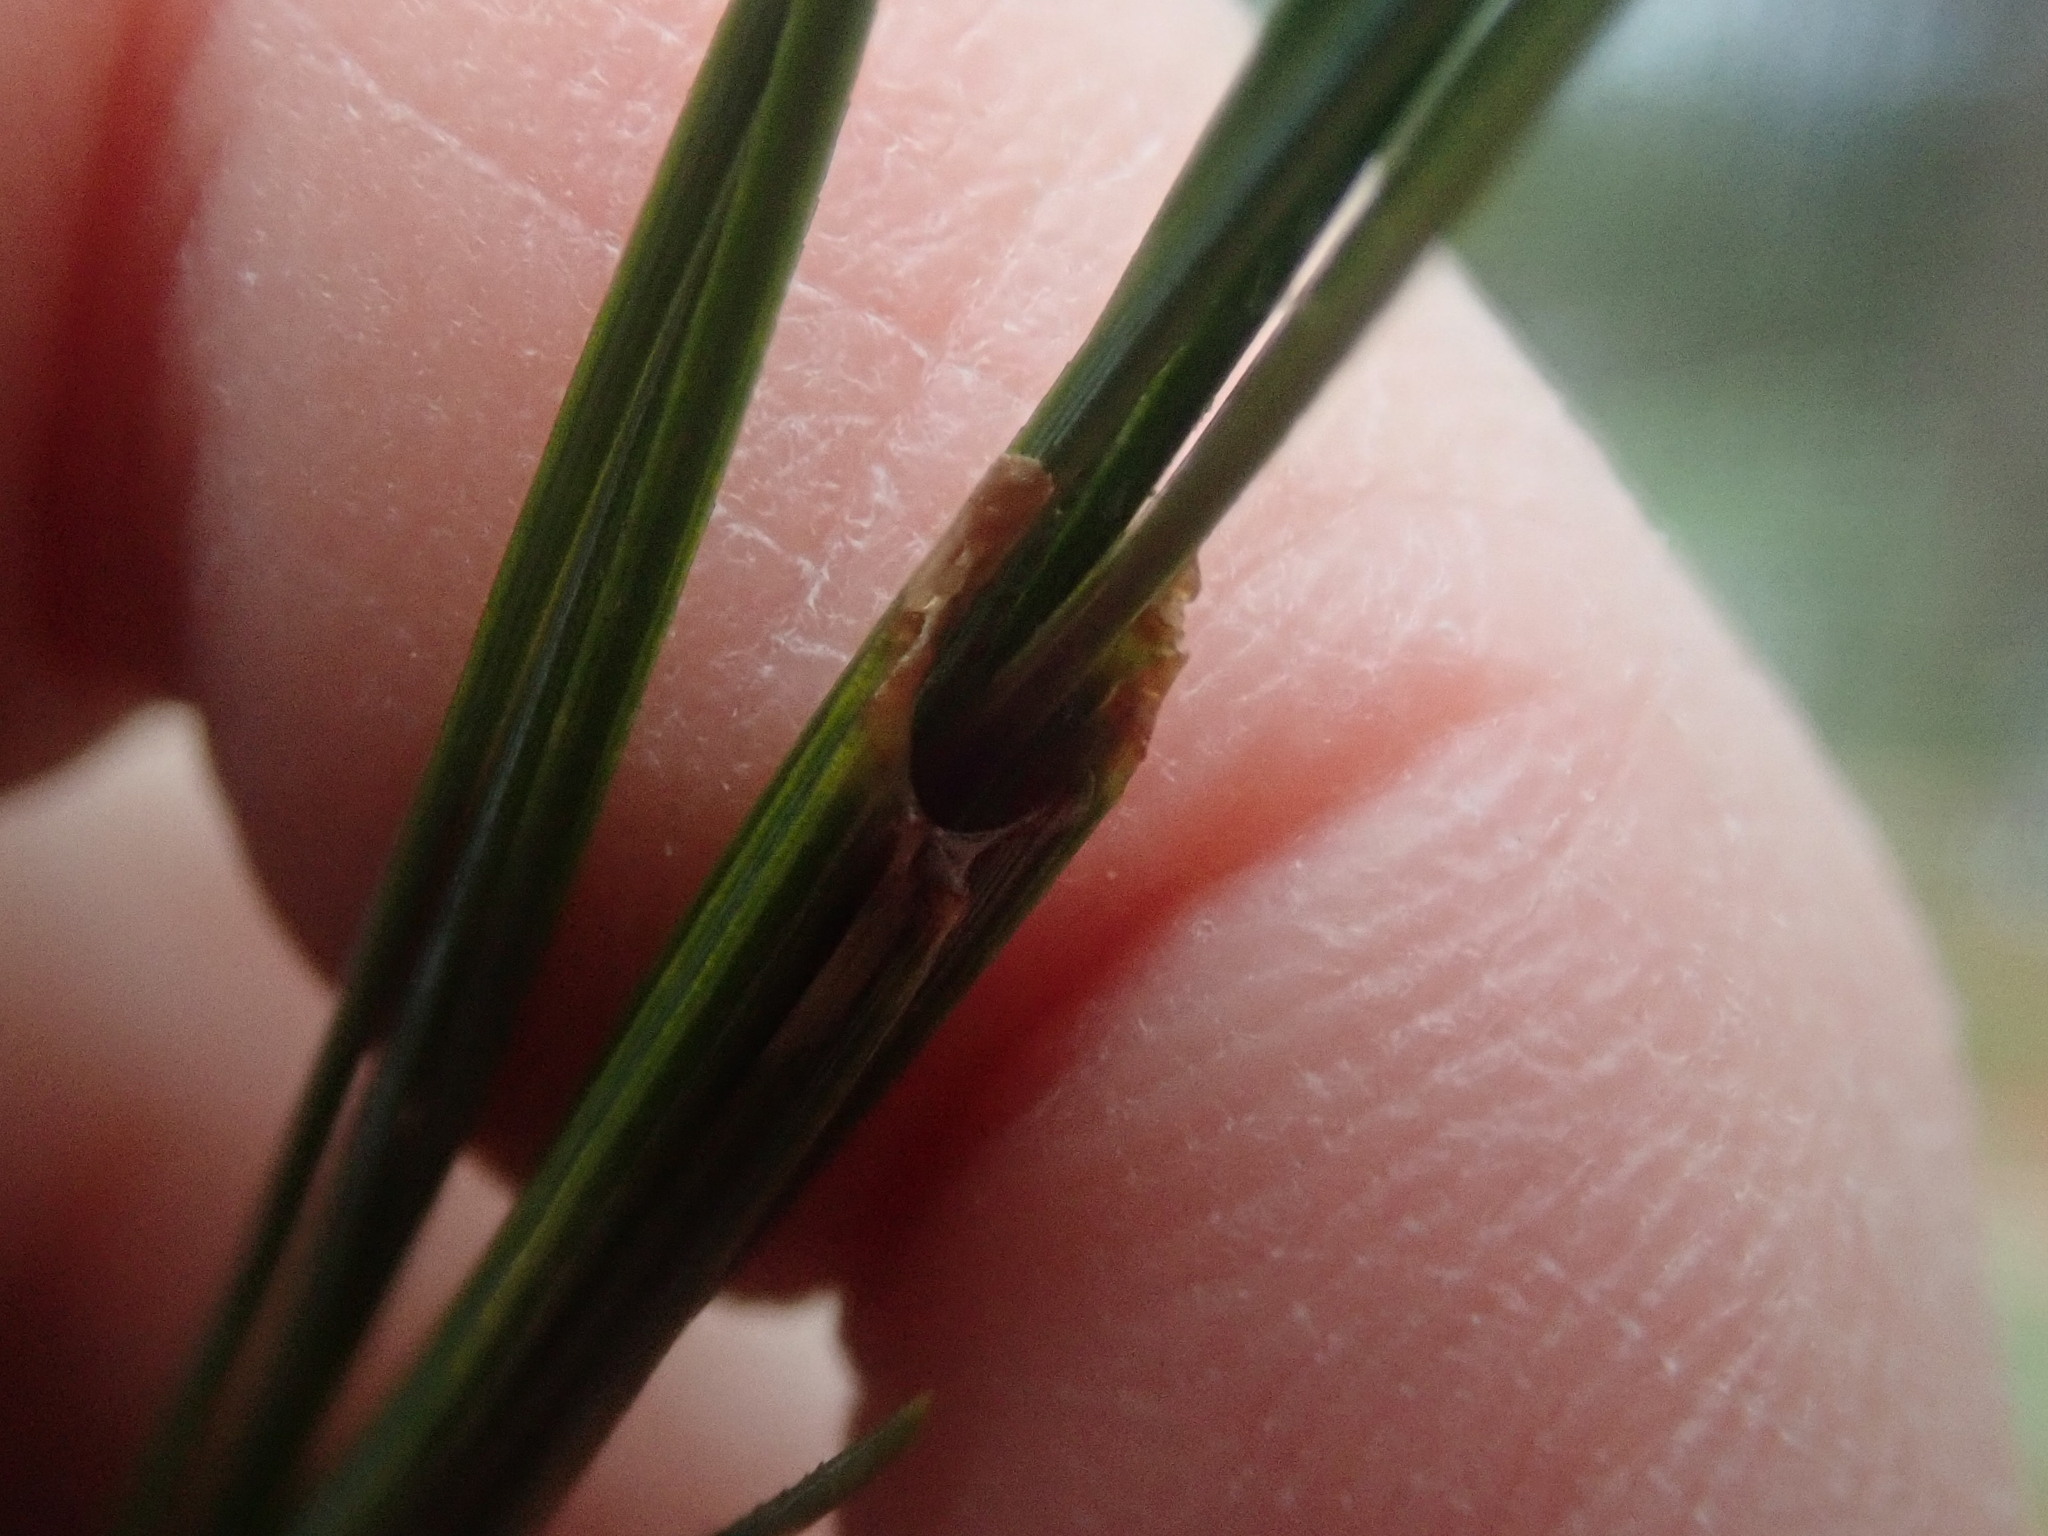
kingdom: Animalia
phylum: Arthropoda
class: Insecta
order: Lepidoptera
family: Tortricidae
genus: Argyrotaenia
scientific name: Argyrotaenia pinatubana
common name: Pine tube moth
